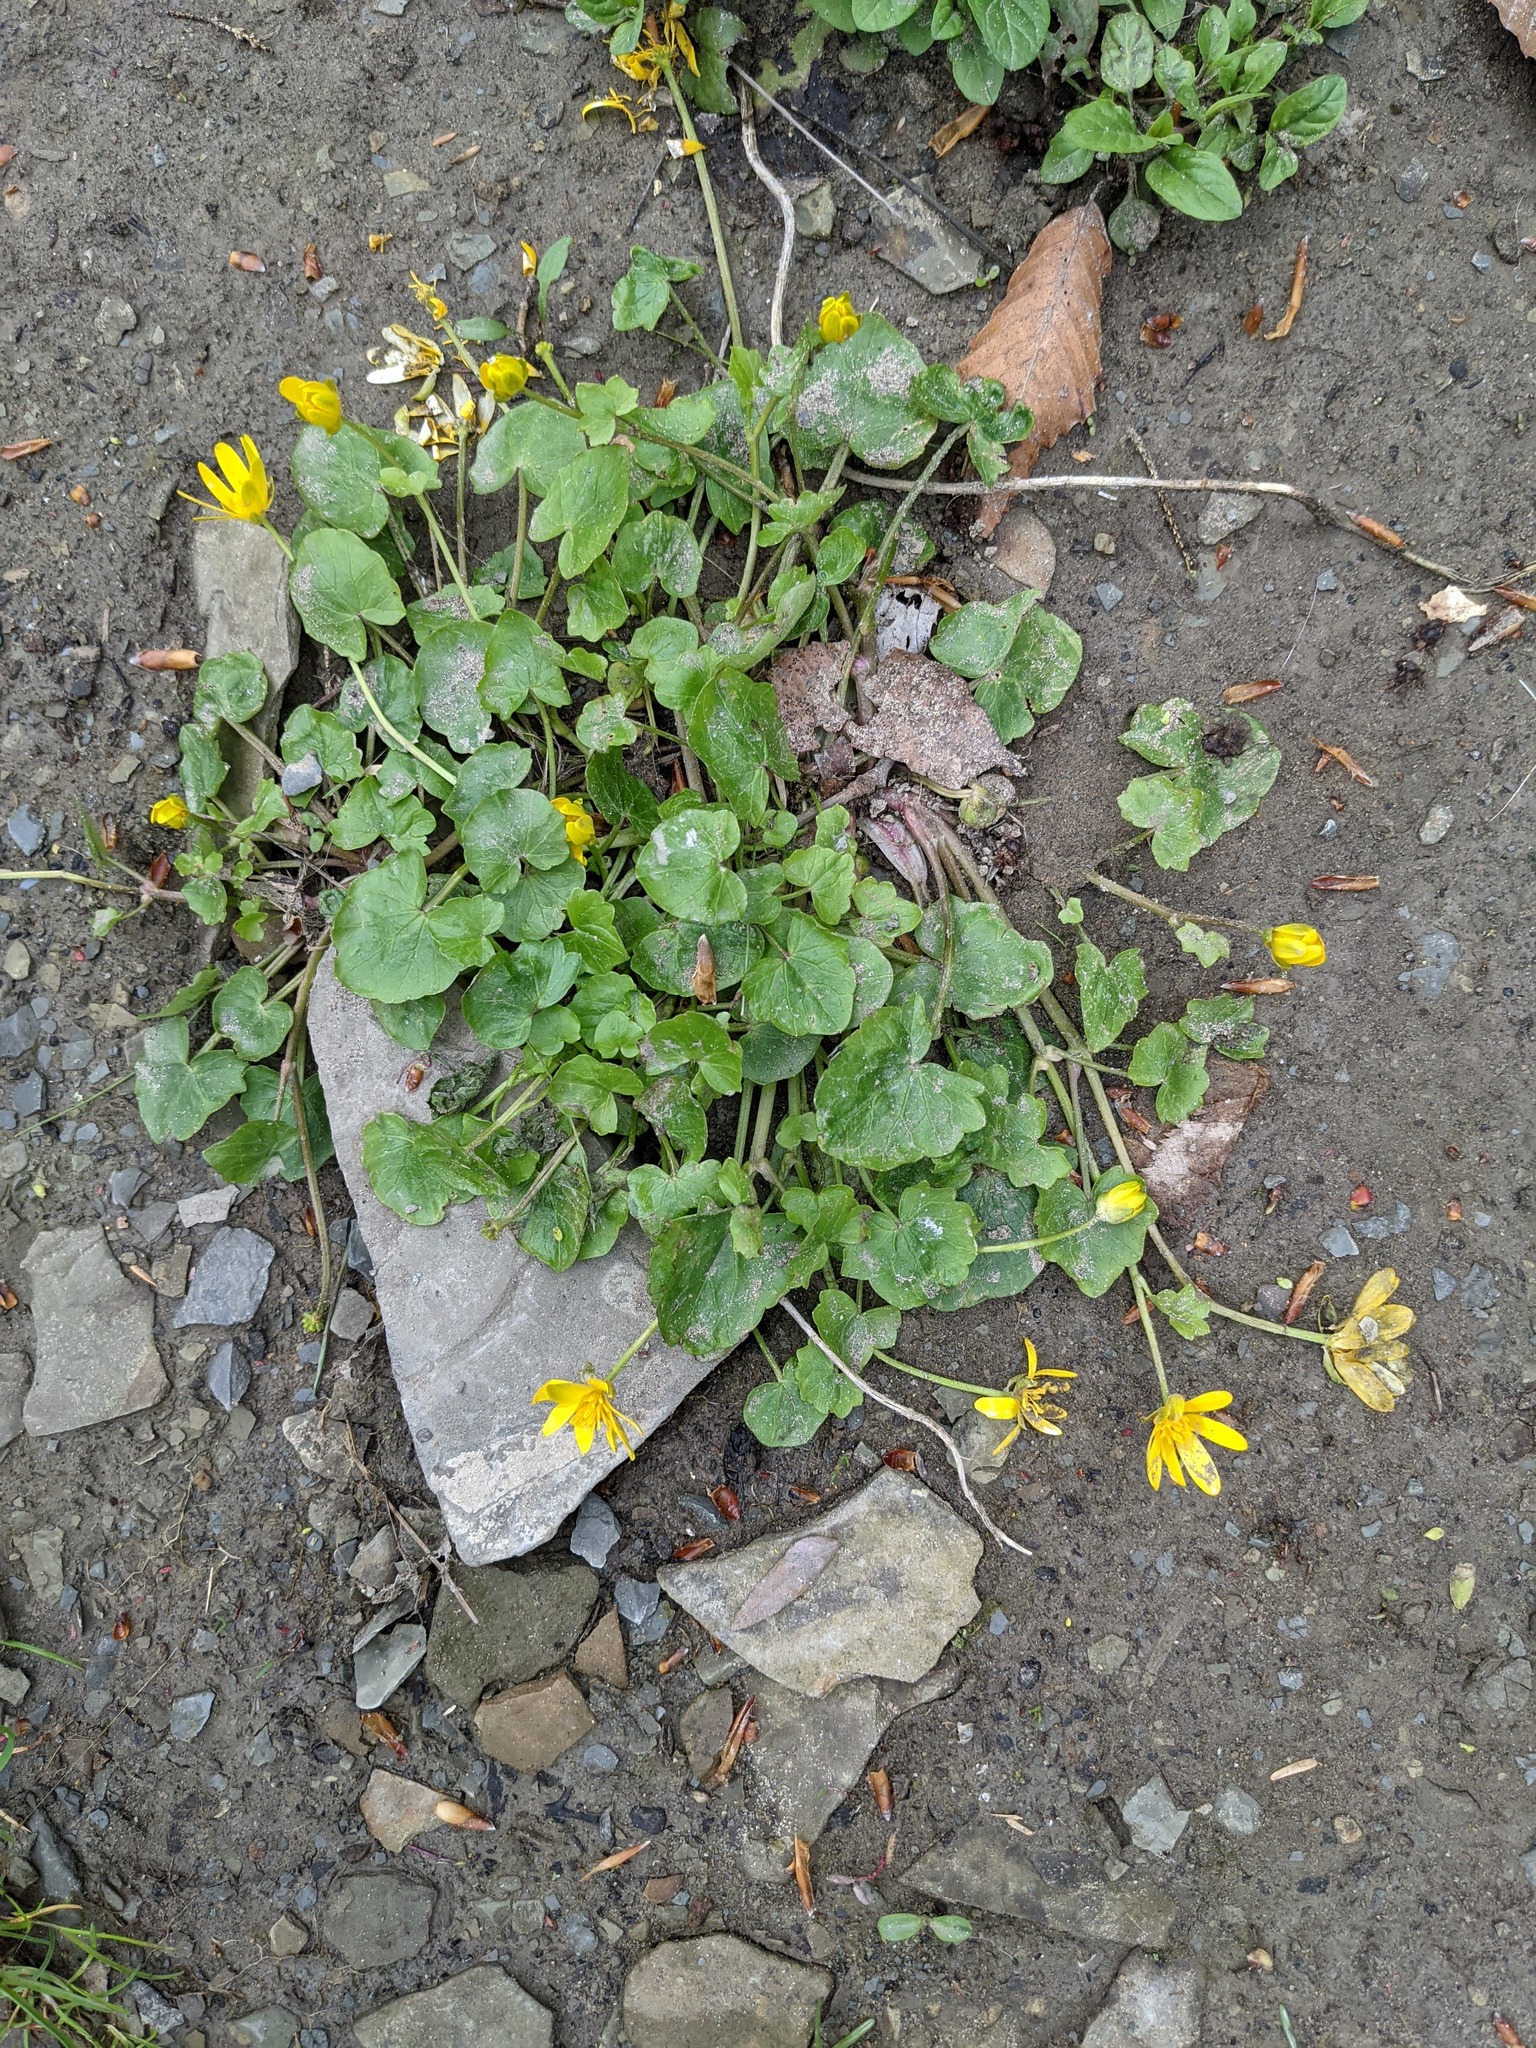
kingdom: Plantae
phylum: Tracheophyta
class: Magnoliopsida
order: Ranunculales
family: Ranunculaceae
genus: Ficaria
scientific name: Ficaria verna
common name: Lesser celandine
